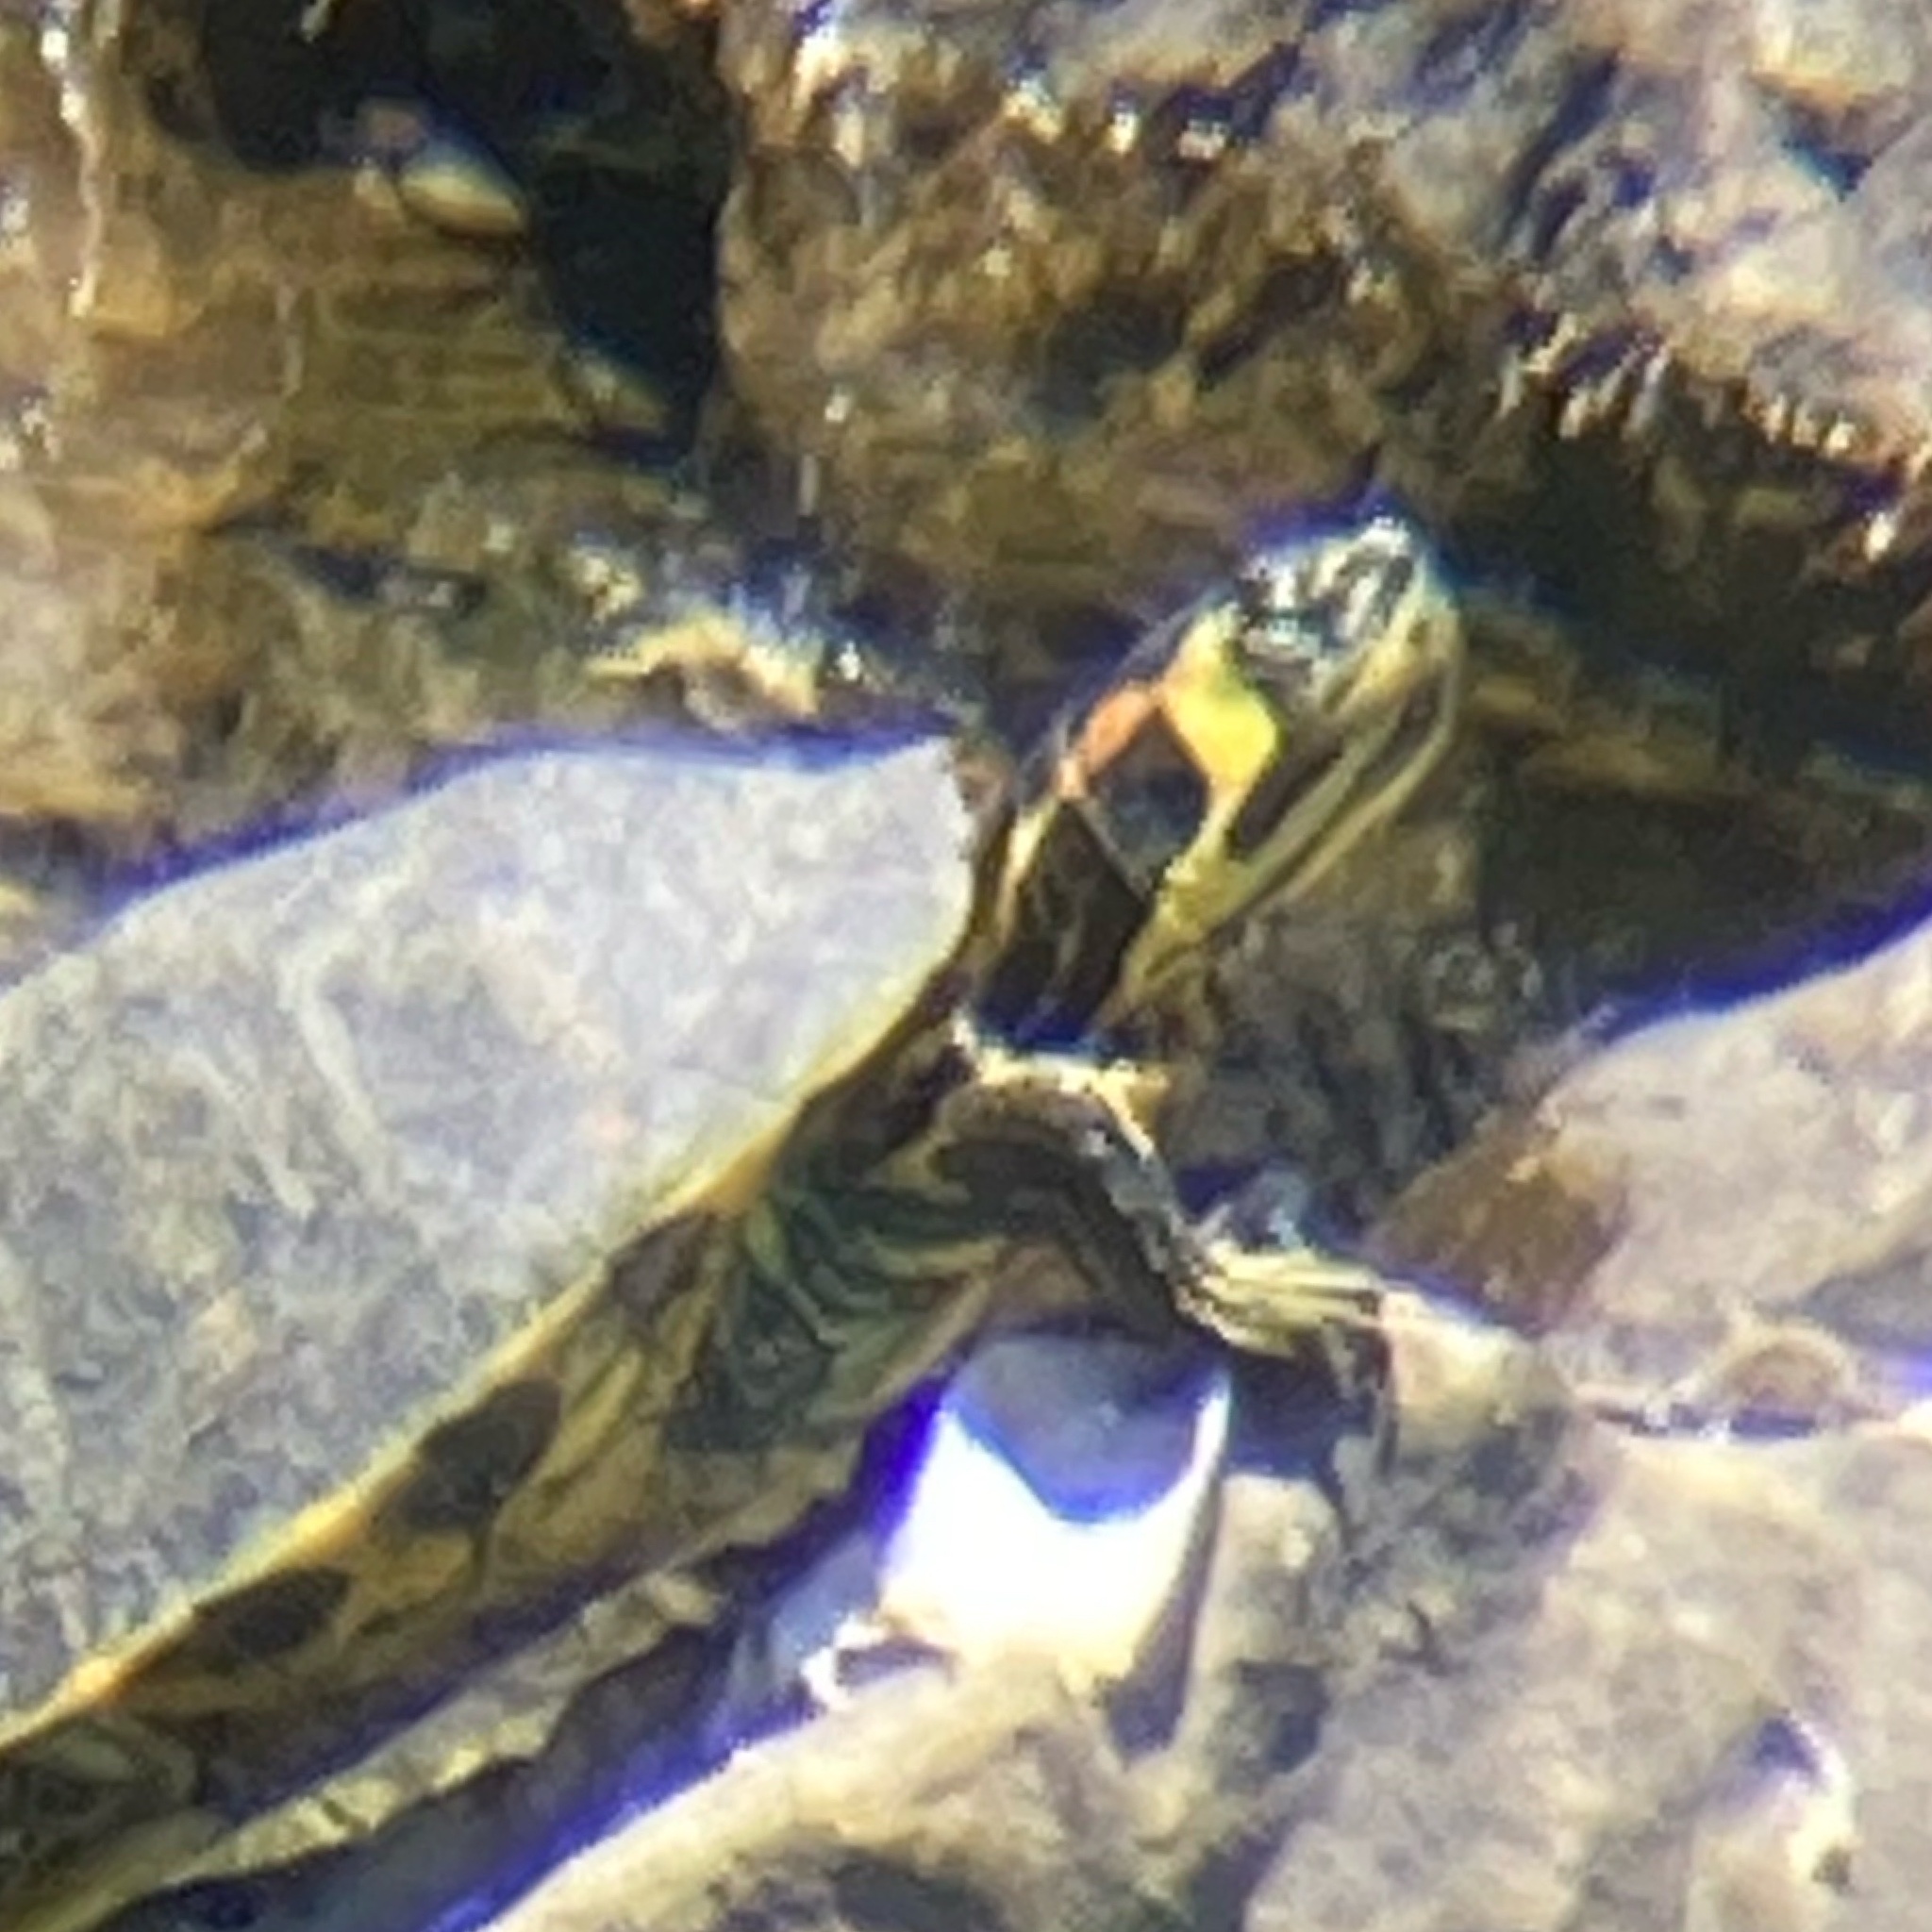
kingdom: Animalia
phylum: Chordata
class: Testudines
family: Emydidae
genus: Trachemys
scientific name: Trachemys scripta
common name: Slider
